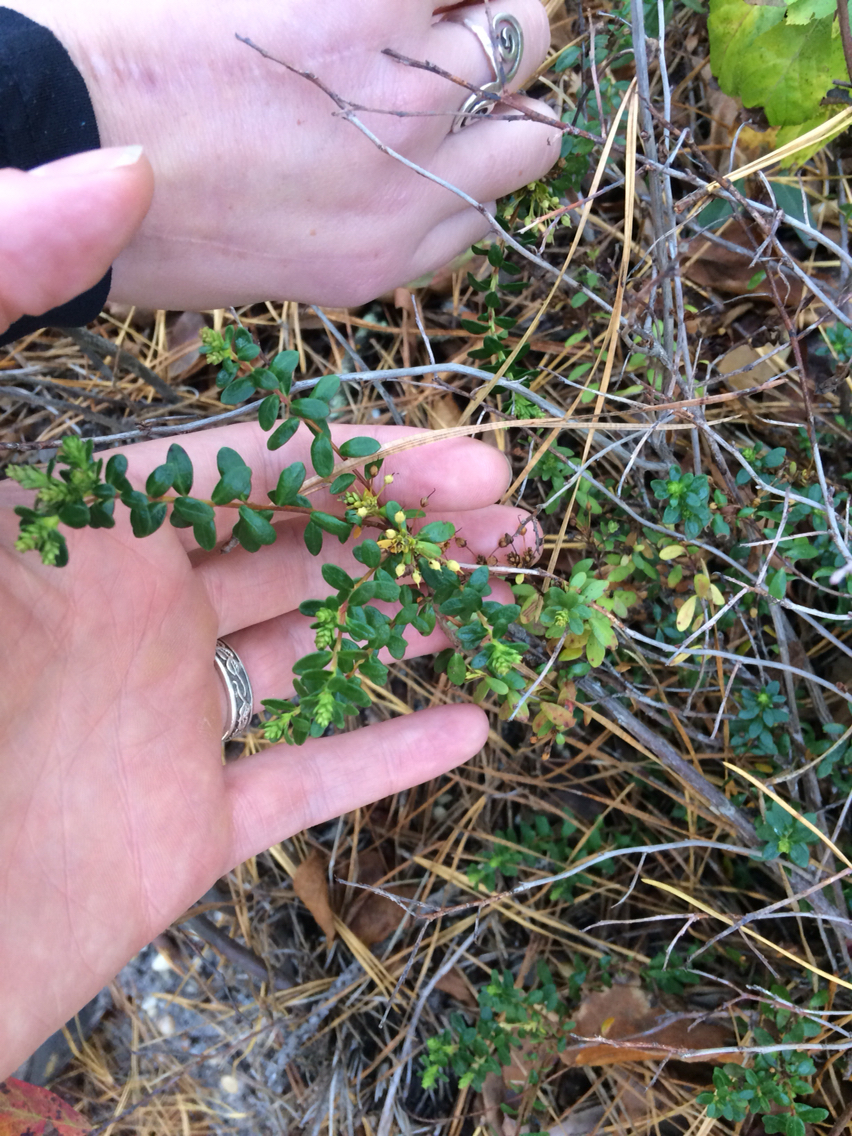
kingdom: Plantae
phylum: Tracheophyta
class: Magnoliopsida
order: Ericales
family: Ericaceae
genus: Kalmia
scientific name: Kalmia buxifolia
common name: Sandmyrtle
